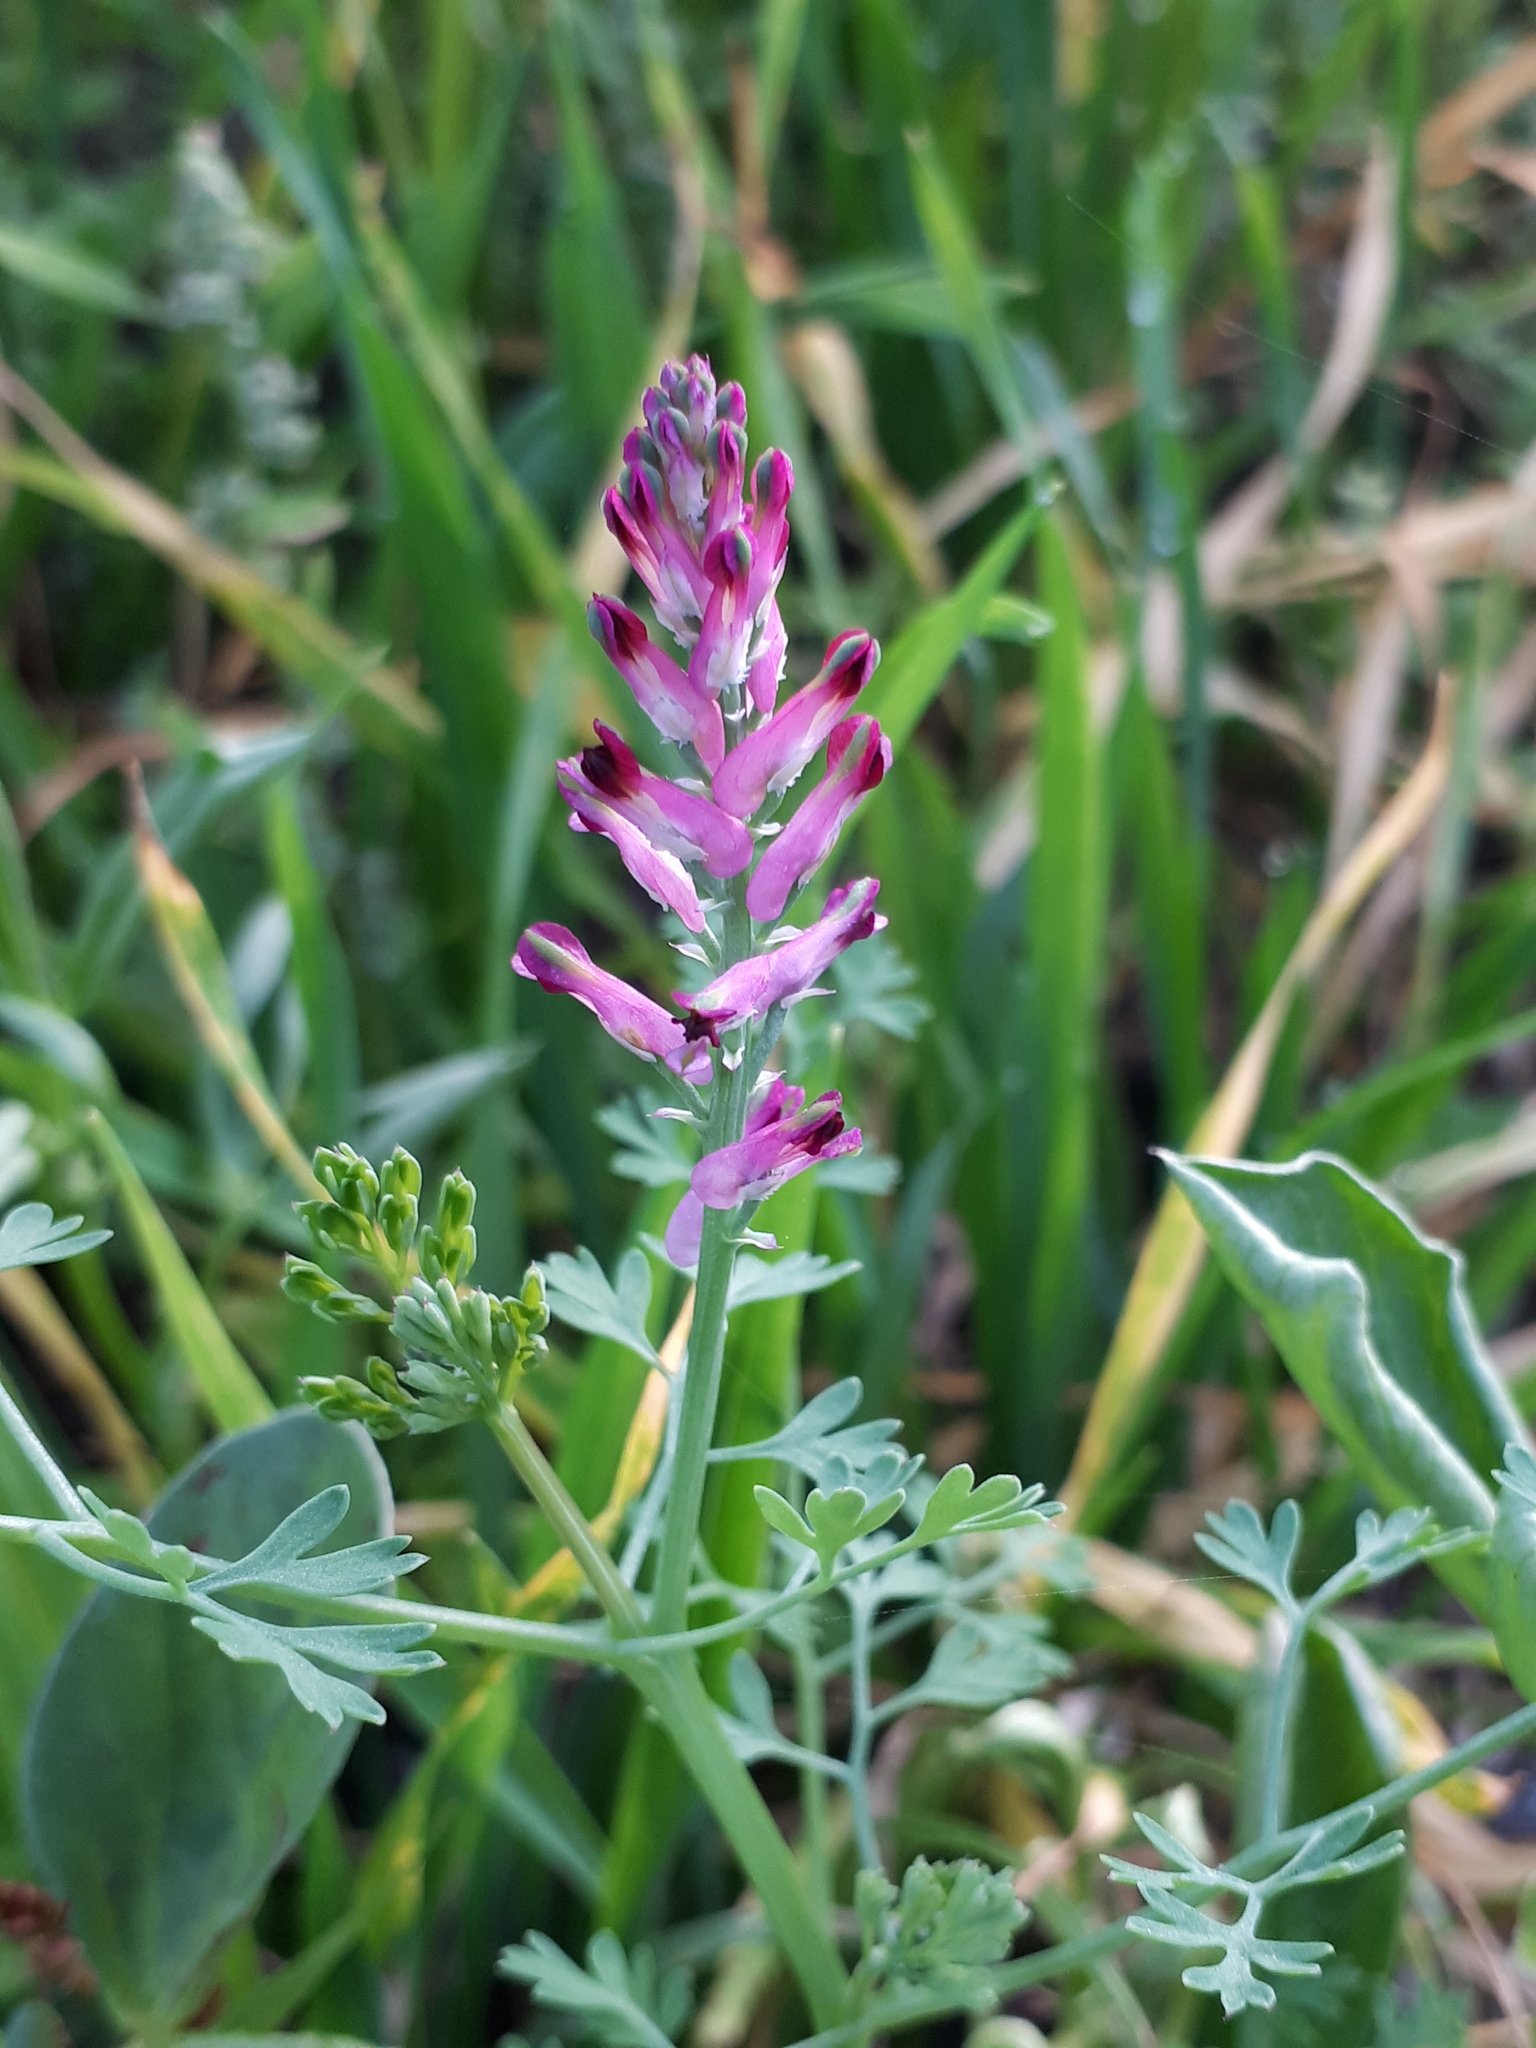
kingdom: Plantae
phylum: Tracheophyta
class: Magnoliopsida
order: Ranunculales
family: Papaveraceae
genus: Fumaria
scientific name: Fumaria officinalis
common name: Common fumitory
